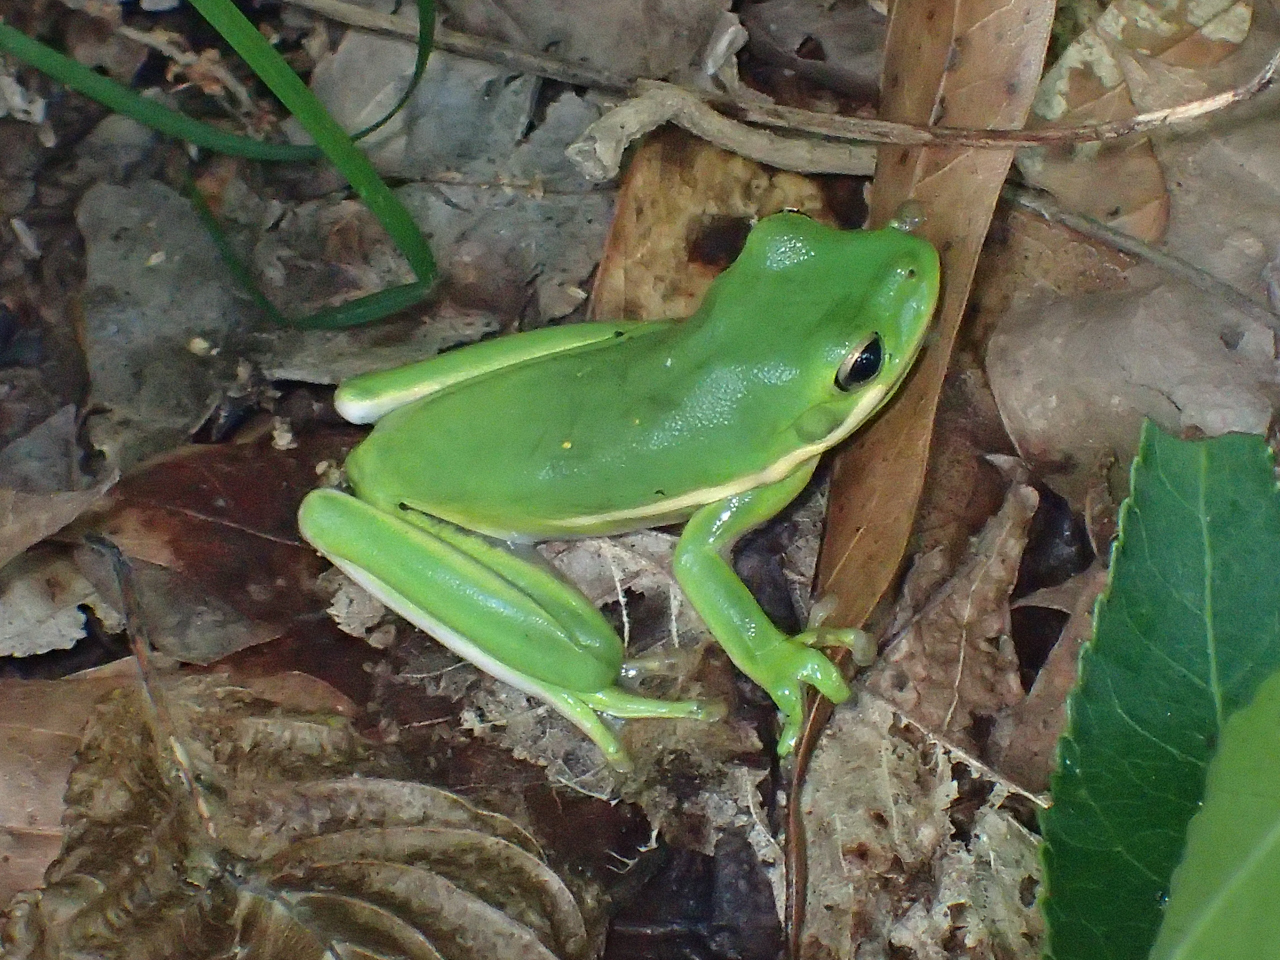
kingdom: Animalia
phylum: Chordata
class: Amphibia
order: Anura
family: Hylidae
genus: Dryophytes
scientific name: Dryophytes cinereus
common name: Green treefrog
